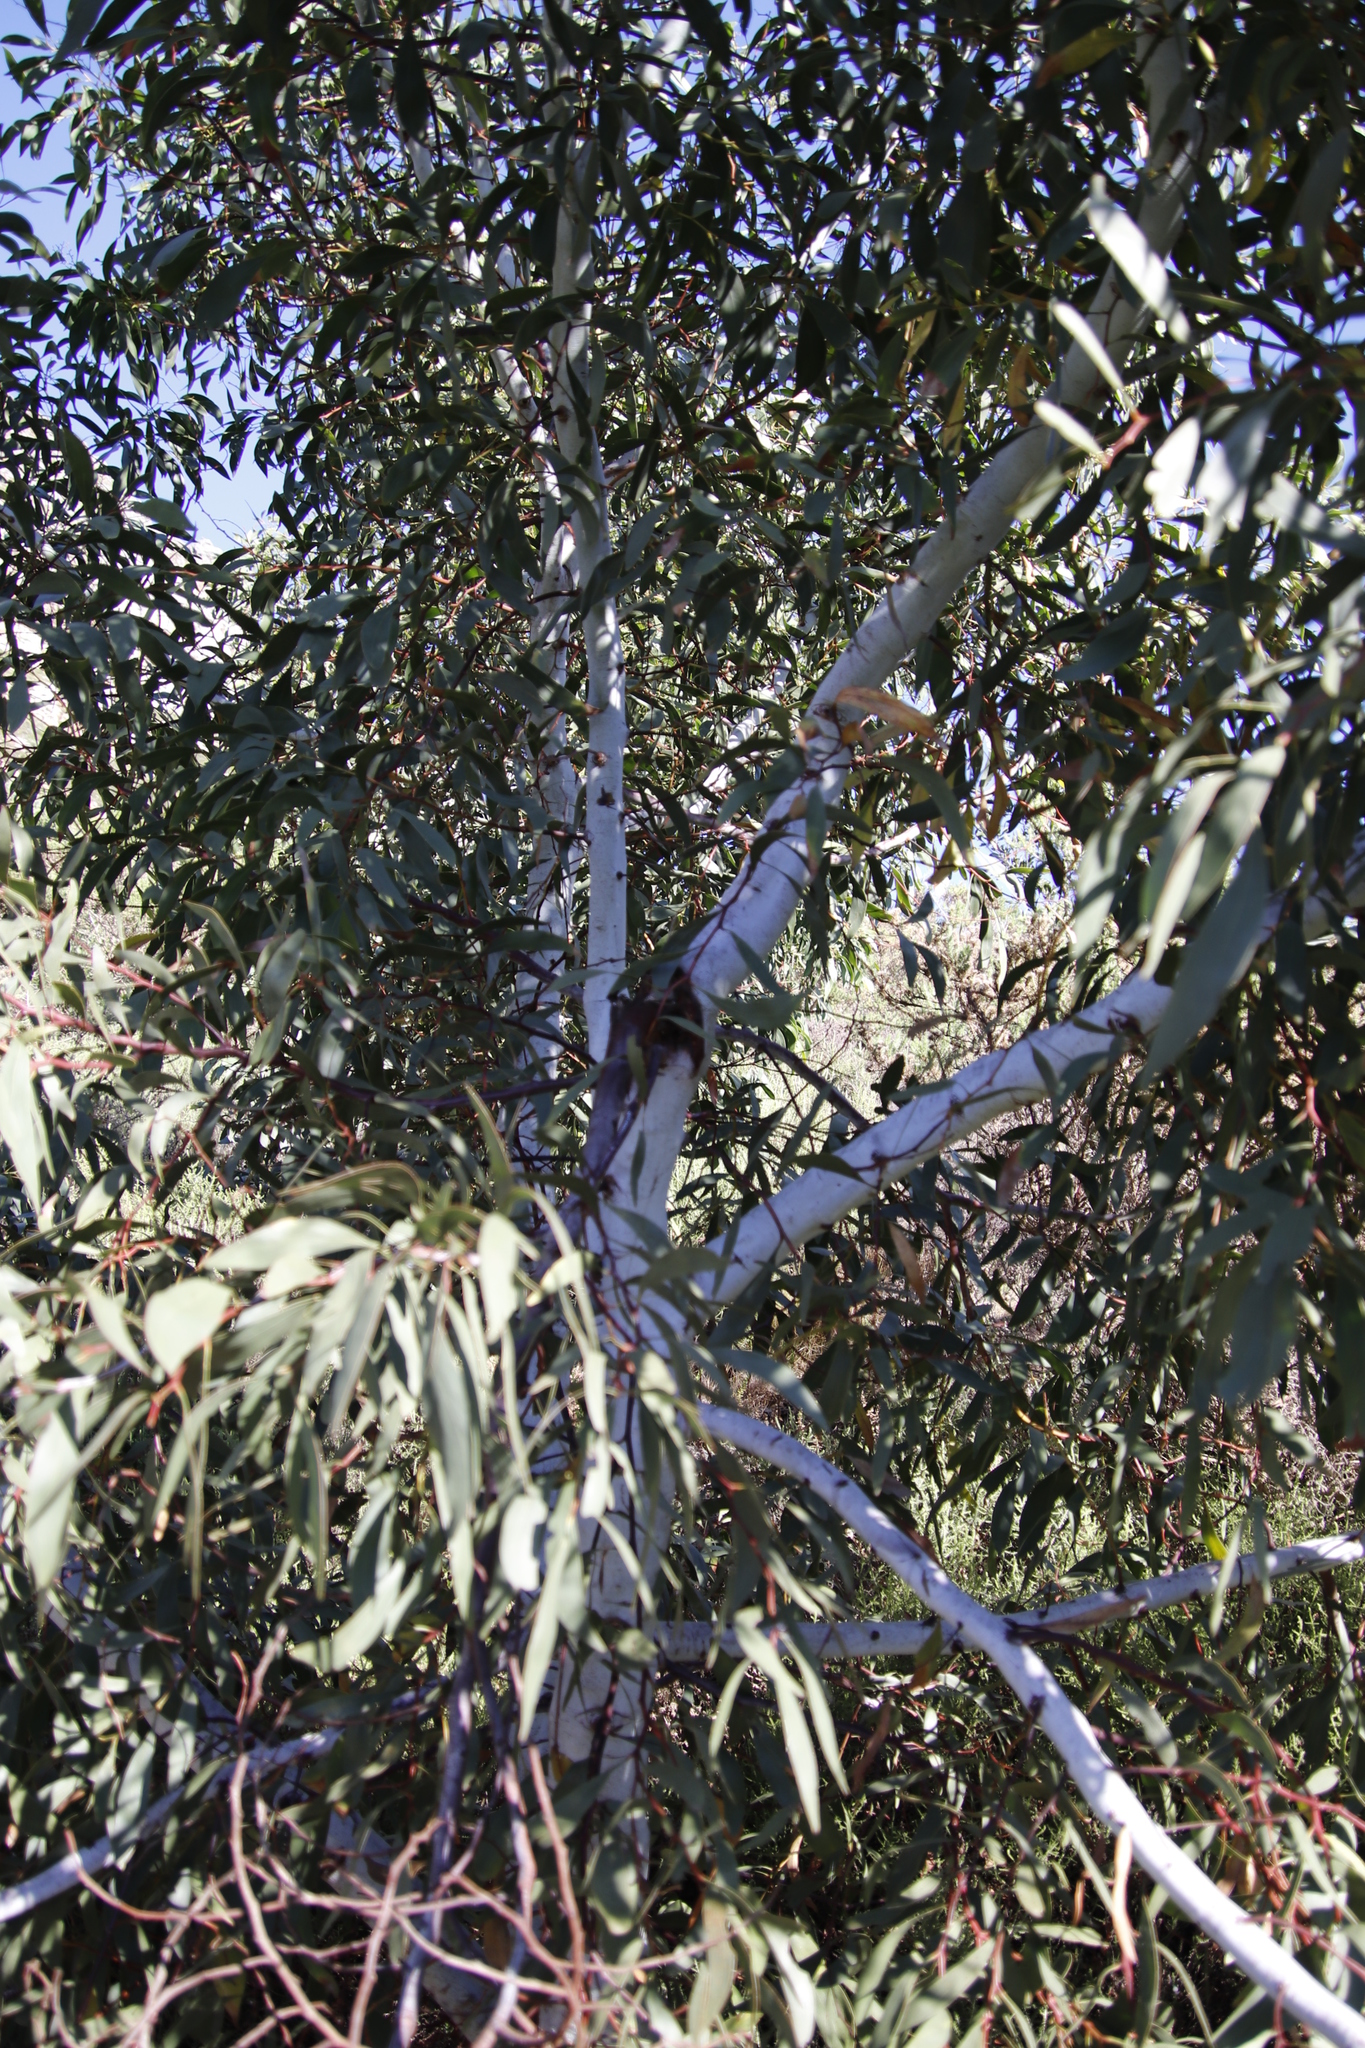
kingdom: Plantae
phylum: Tracheophyta
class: Magnoliopsida
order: Fabales
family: Fabaceae
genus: Acacia
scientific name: Acacia pycnantha
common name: Golden wattle
